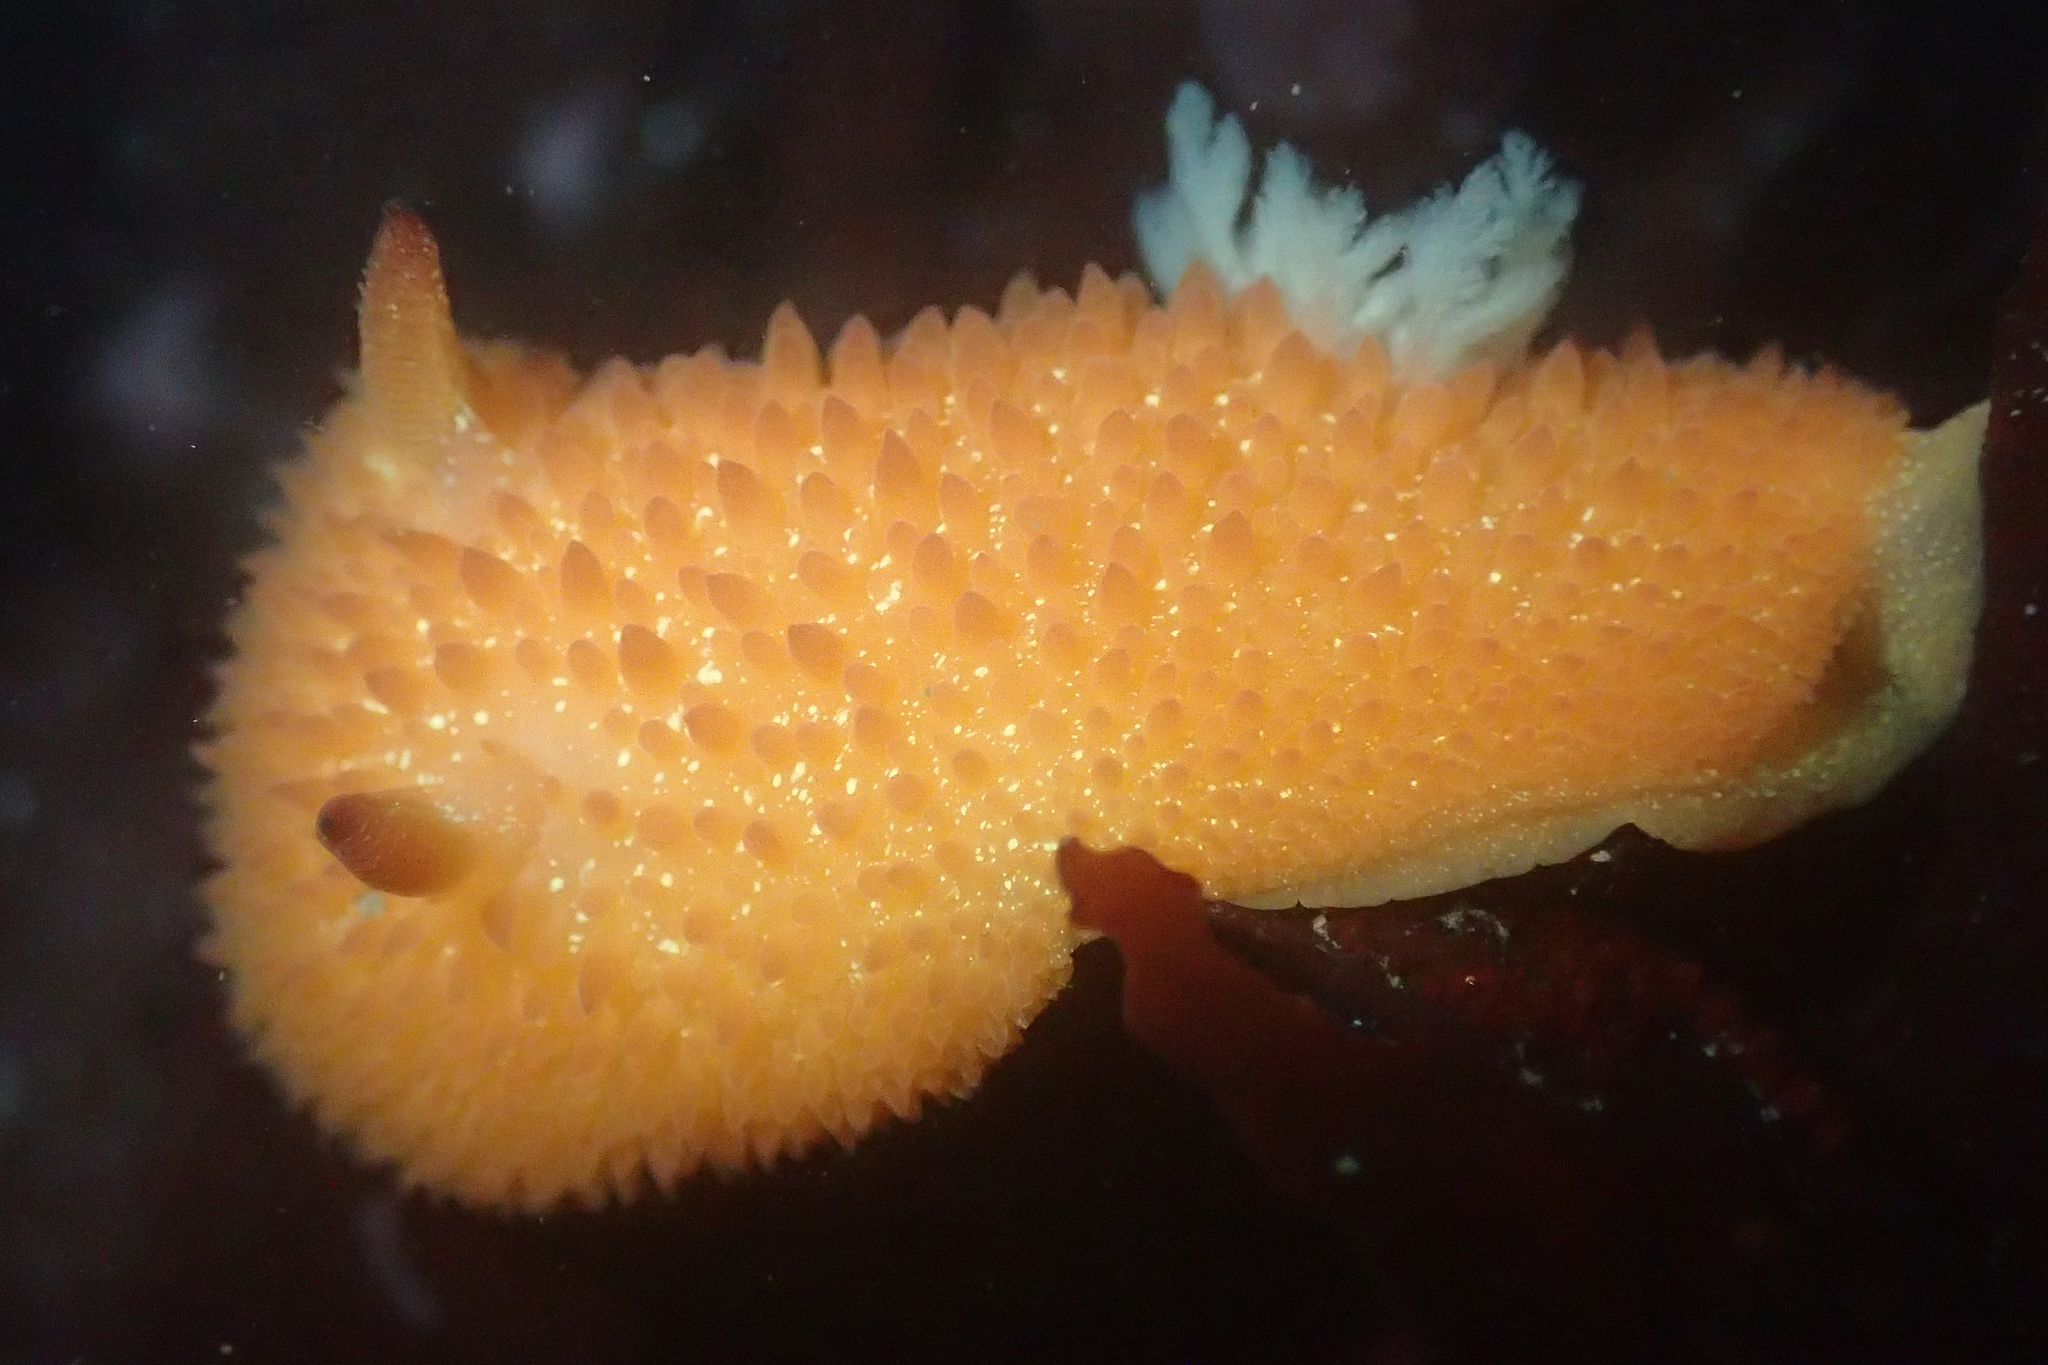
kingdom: Animalia
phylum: Mollusca
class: Gastropoda
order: Nudibranchia
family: Onchidorididae
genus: Acanthodoris
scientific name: Acanthodoris lutea
